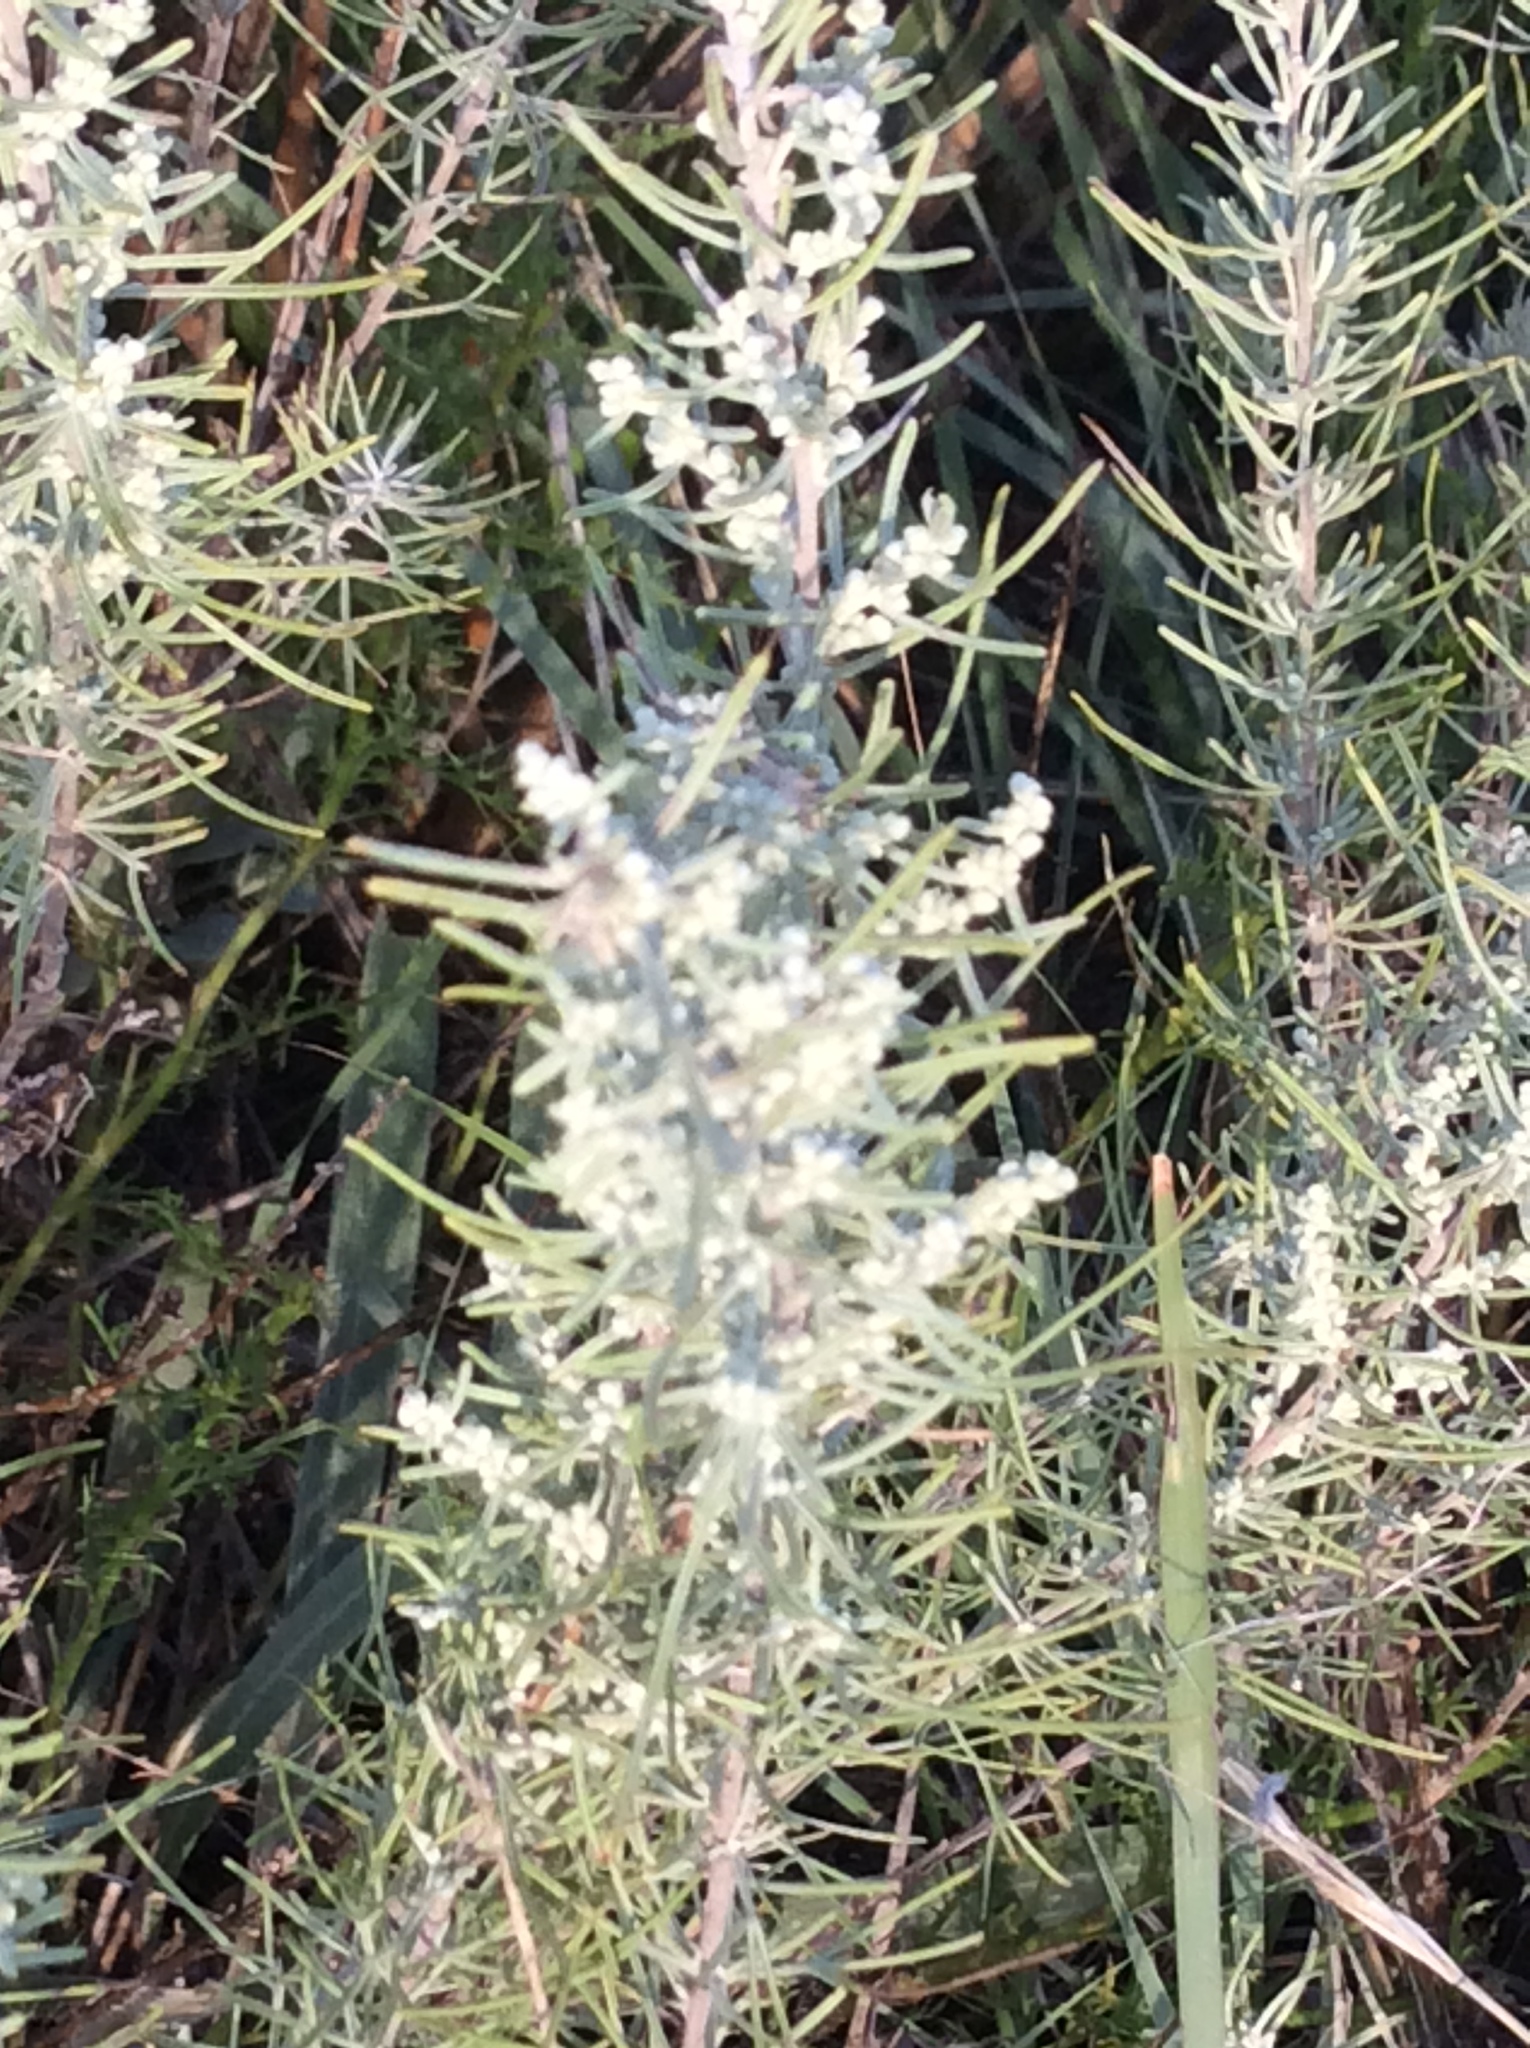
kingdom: Plantae
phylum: Tracheophyta
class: Magnoliopsida
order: Asterales
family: Asteraceae
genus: Artemisia
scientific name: Artemisia filifolia
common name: Sand-sage
